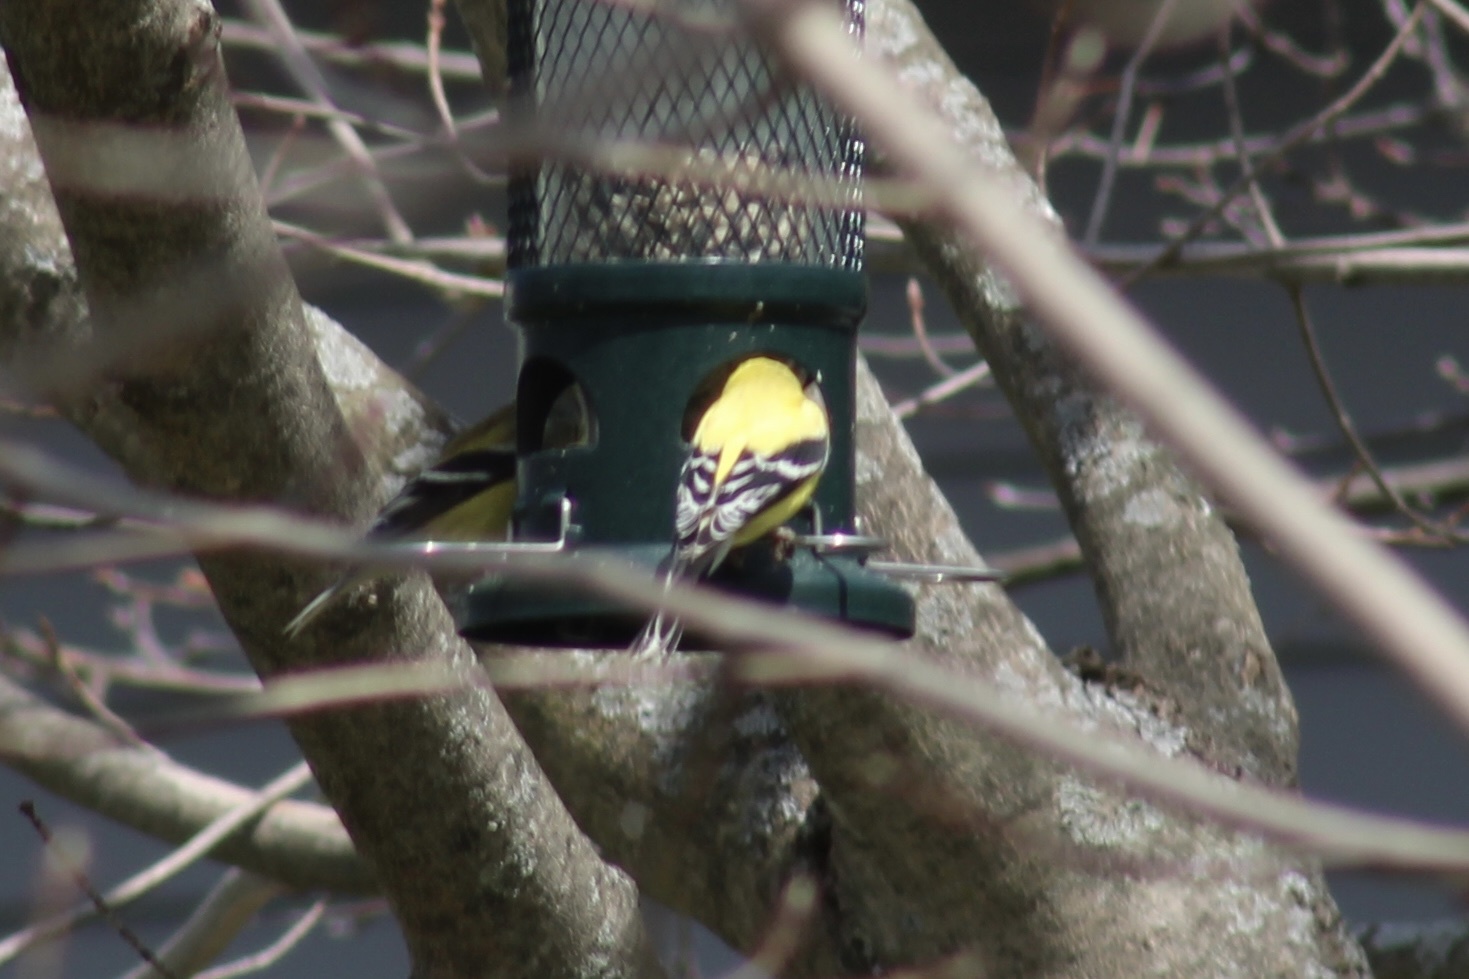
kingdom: Animalia
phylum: Chordata
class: Aves
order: Passeriformes
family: Fringillidae
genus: Spinus
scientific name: Spinus tristis
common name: American goldfinch
